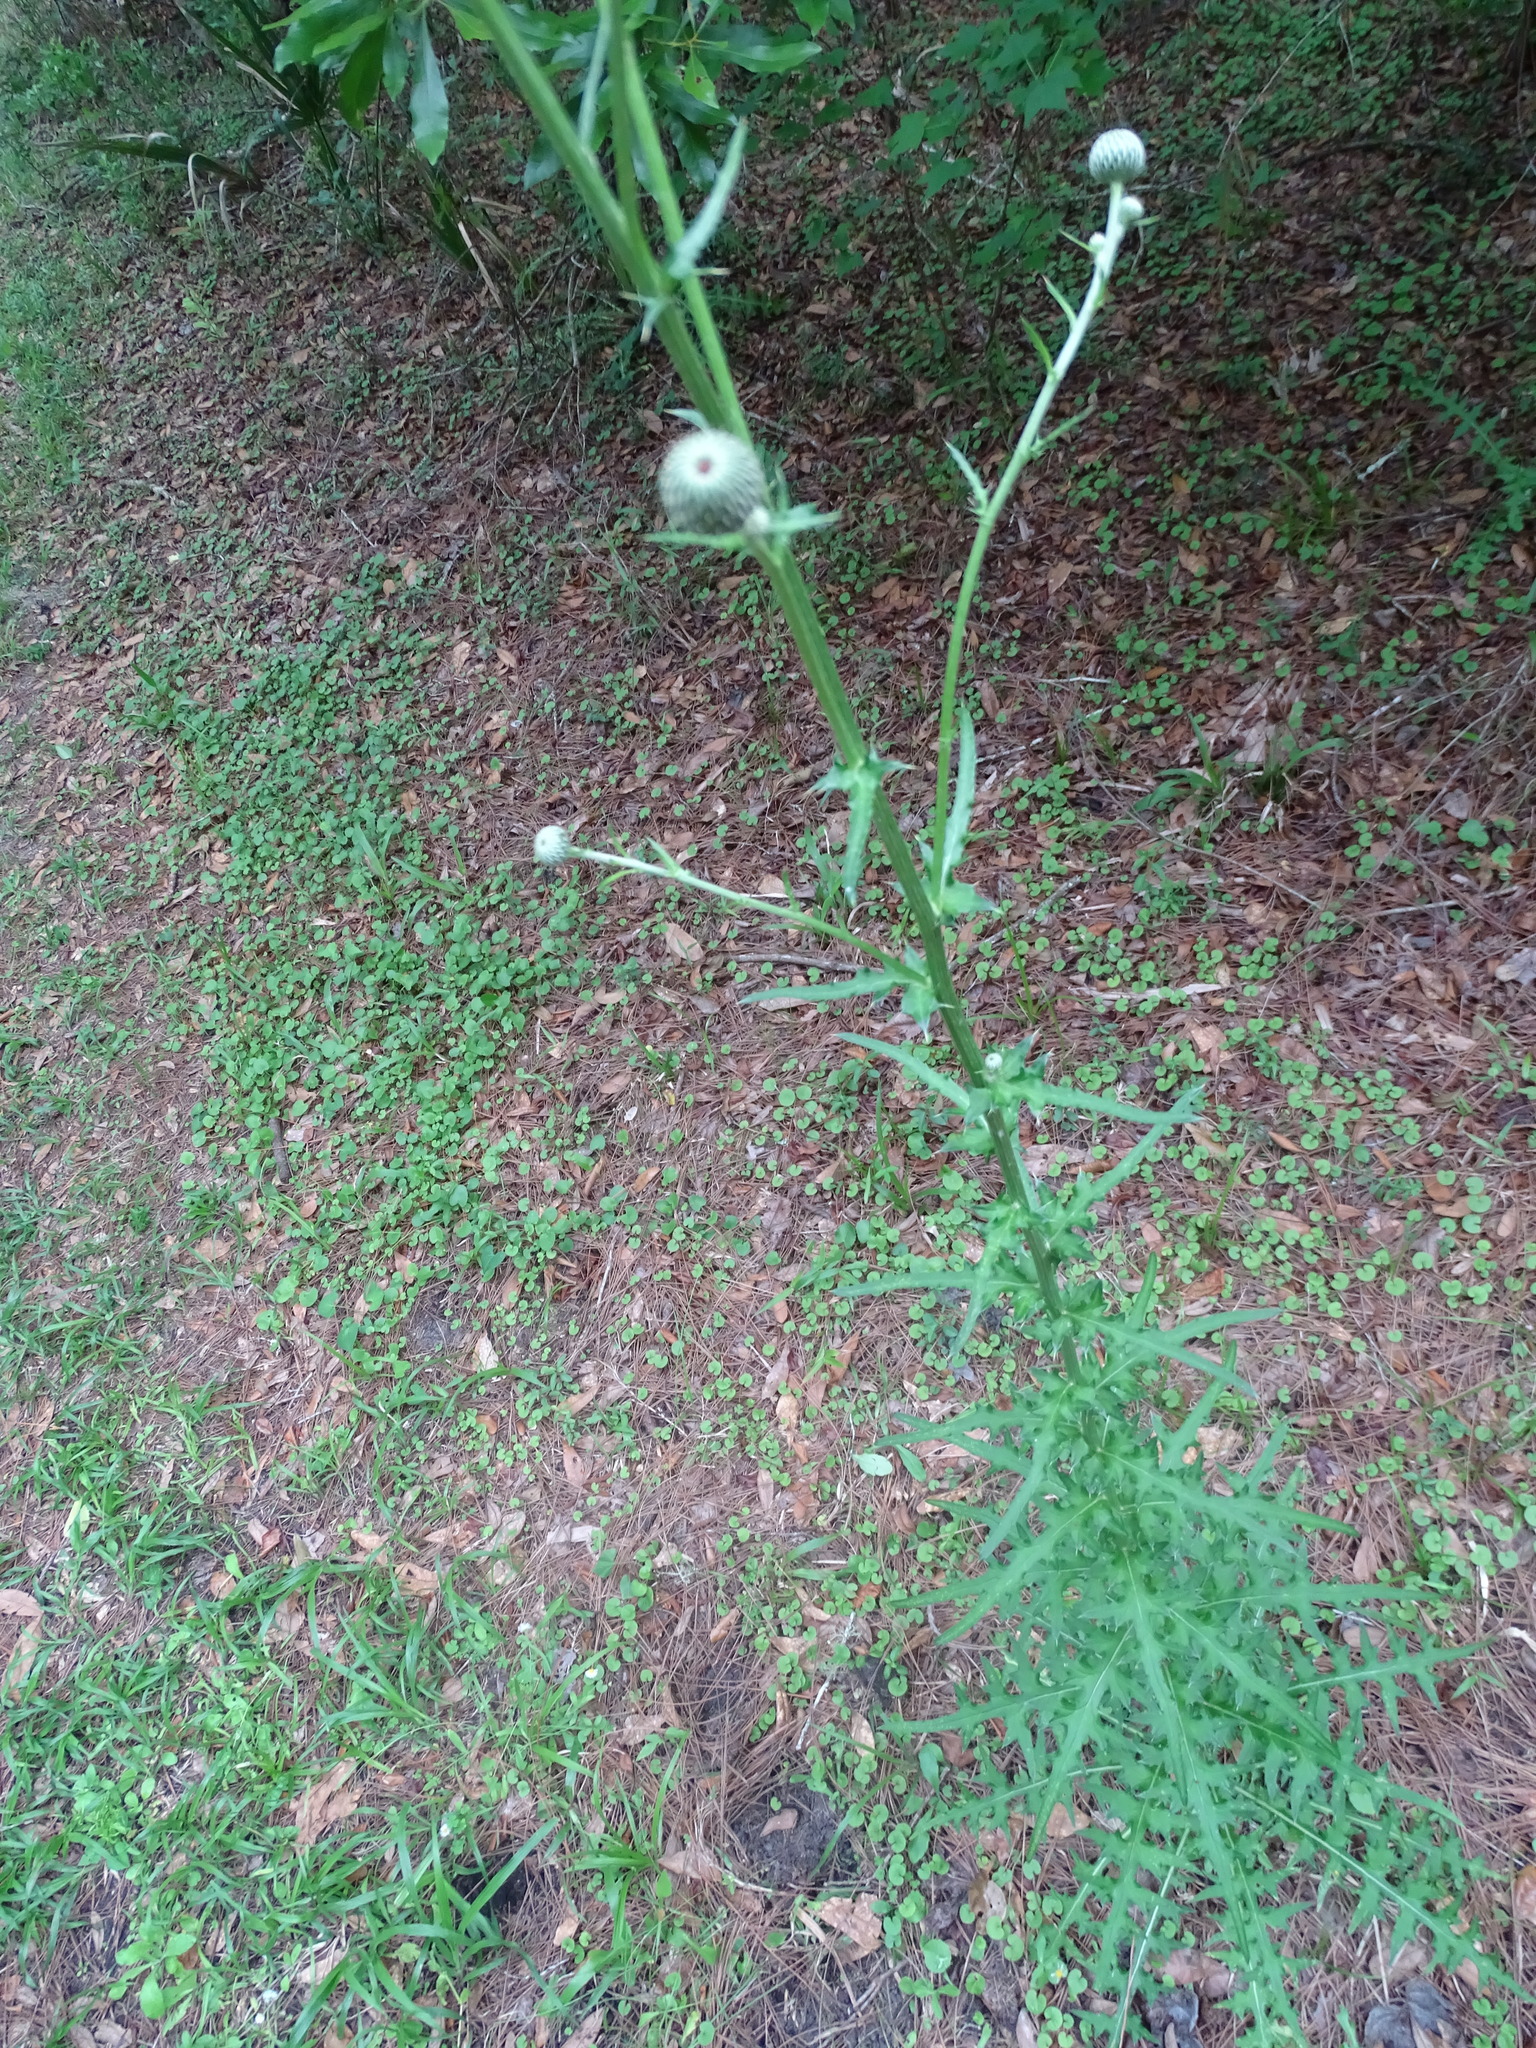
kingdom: Plantae
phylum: Tracheophyta
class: Magnoliopsida
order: Asterales
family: Asteraceae
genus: Cirsium
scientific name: Cirsium nuttalii
